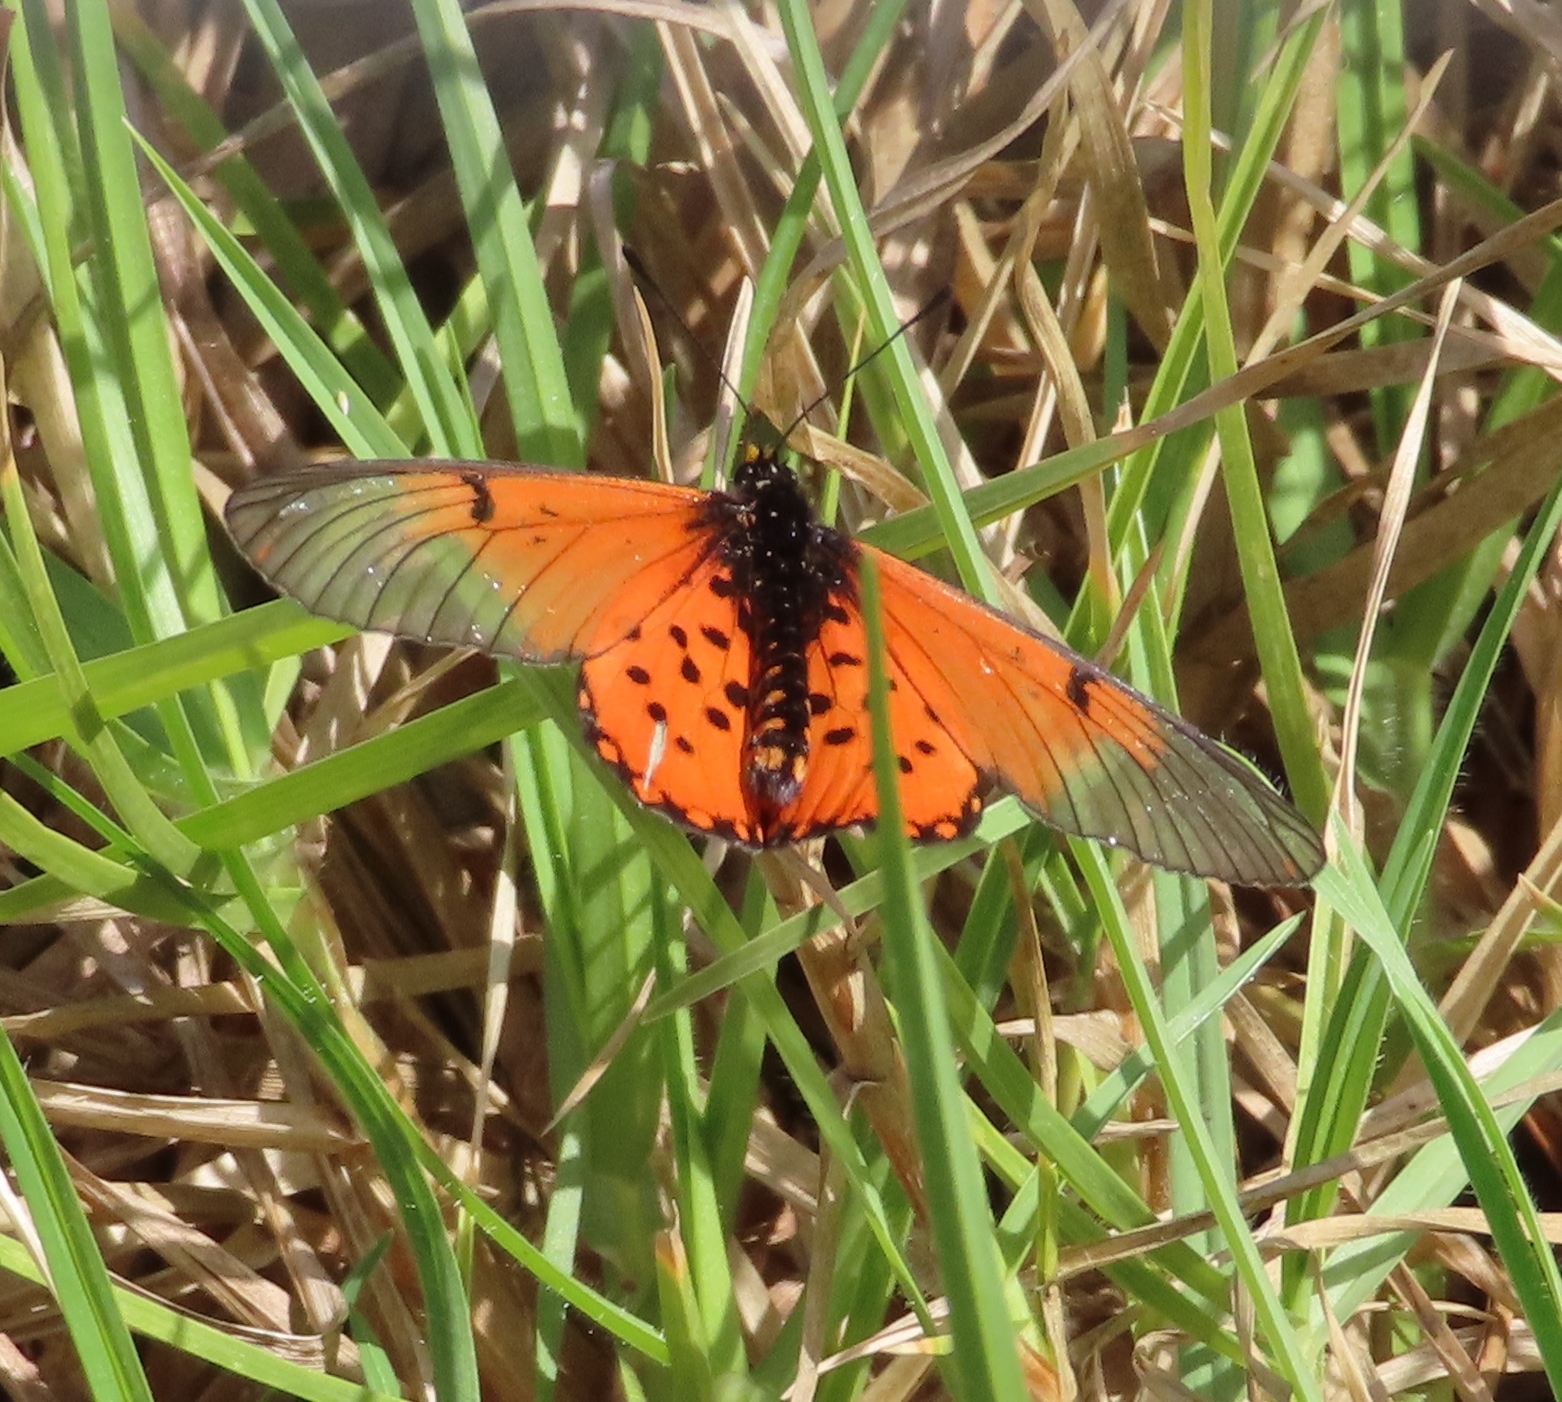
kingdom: Animalia
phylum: Arthropoda
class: Insecta
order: Lepidoptera
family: Nymphalidae
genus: Acraea
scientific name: Acraea horta
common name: Garden acraea
